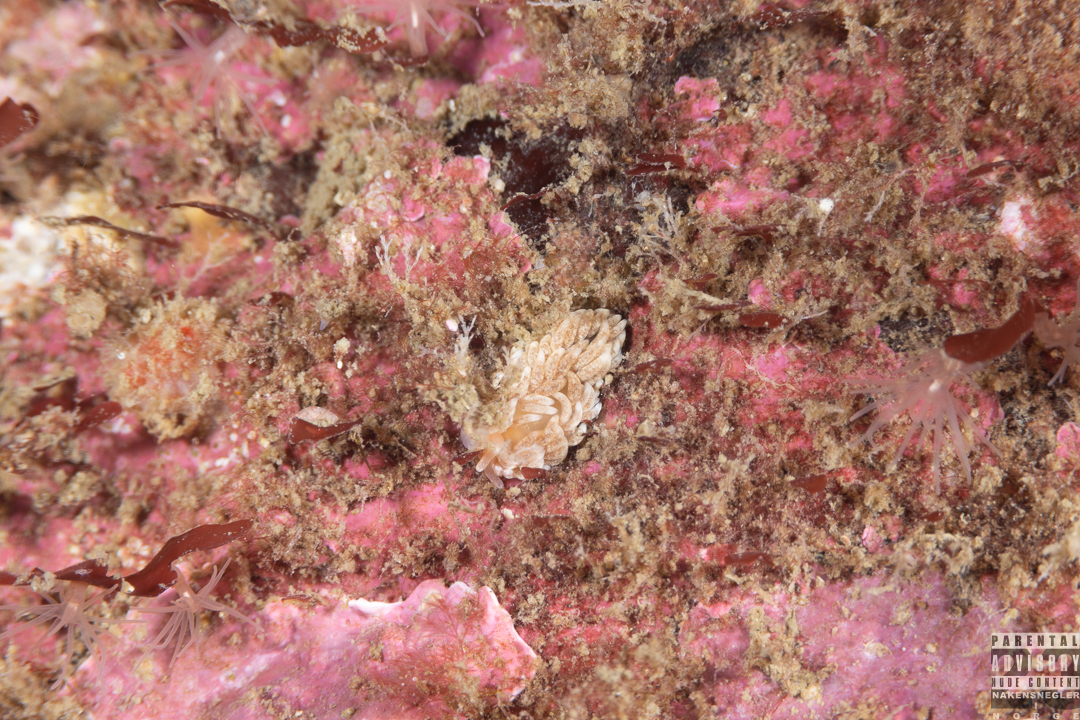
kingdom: Animalia
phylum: Mollusca
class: Gastropoda
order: Nudibranchia
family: Aeolidiidae
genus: Aeolidiella
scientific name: Aeolidiella glauca
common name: Orange-brown aeolid
